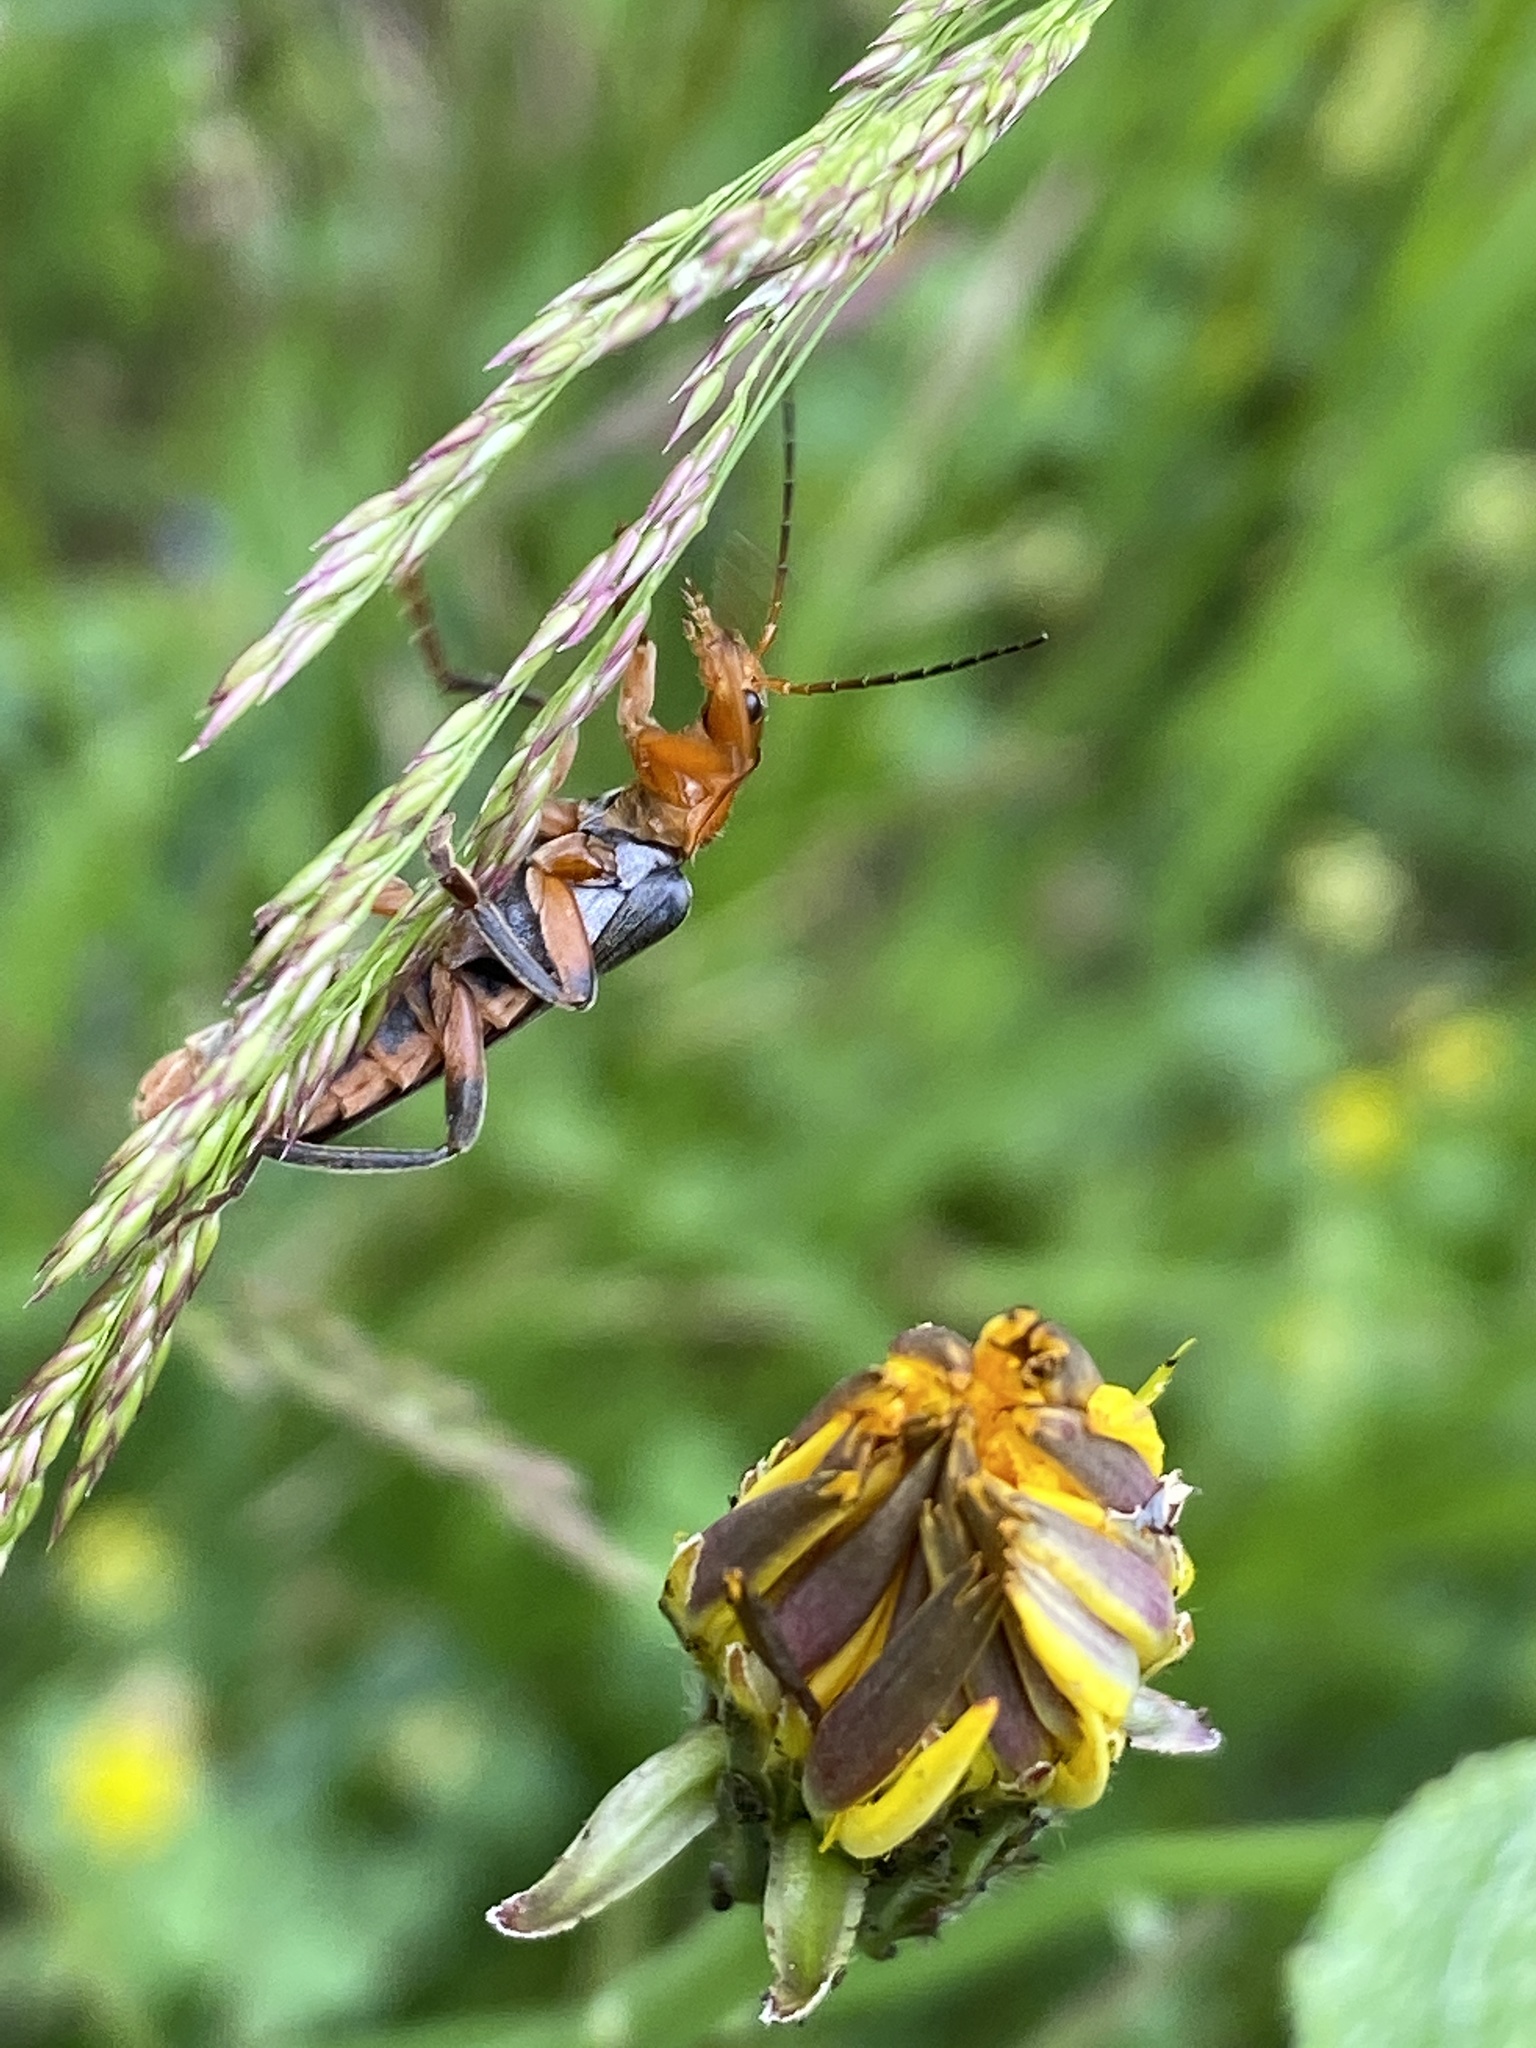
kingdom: Animalia
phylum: Arthropoda
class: Insecta
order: Coleoptera
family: Cantharidae
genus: Cantharis
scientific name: Cantharis livida
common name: Livid soldier beetle
